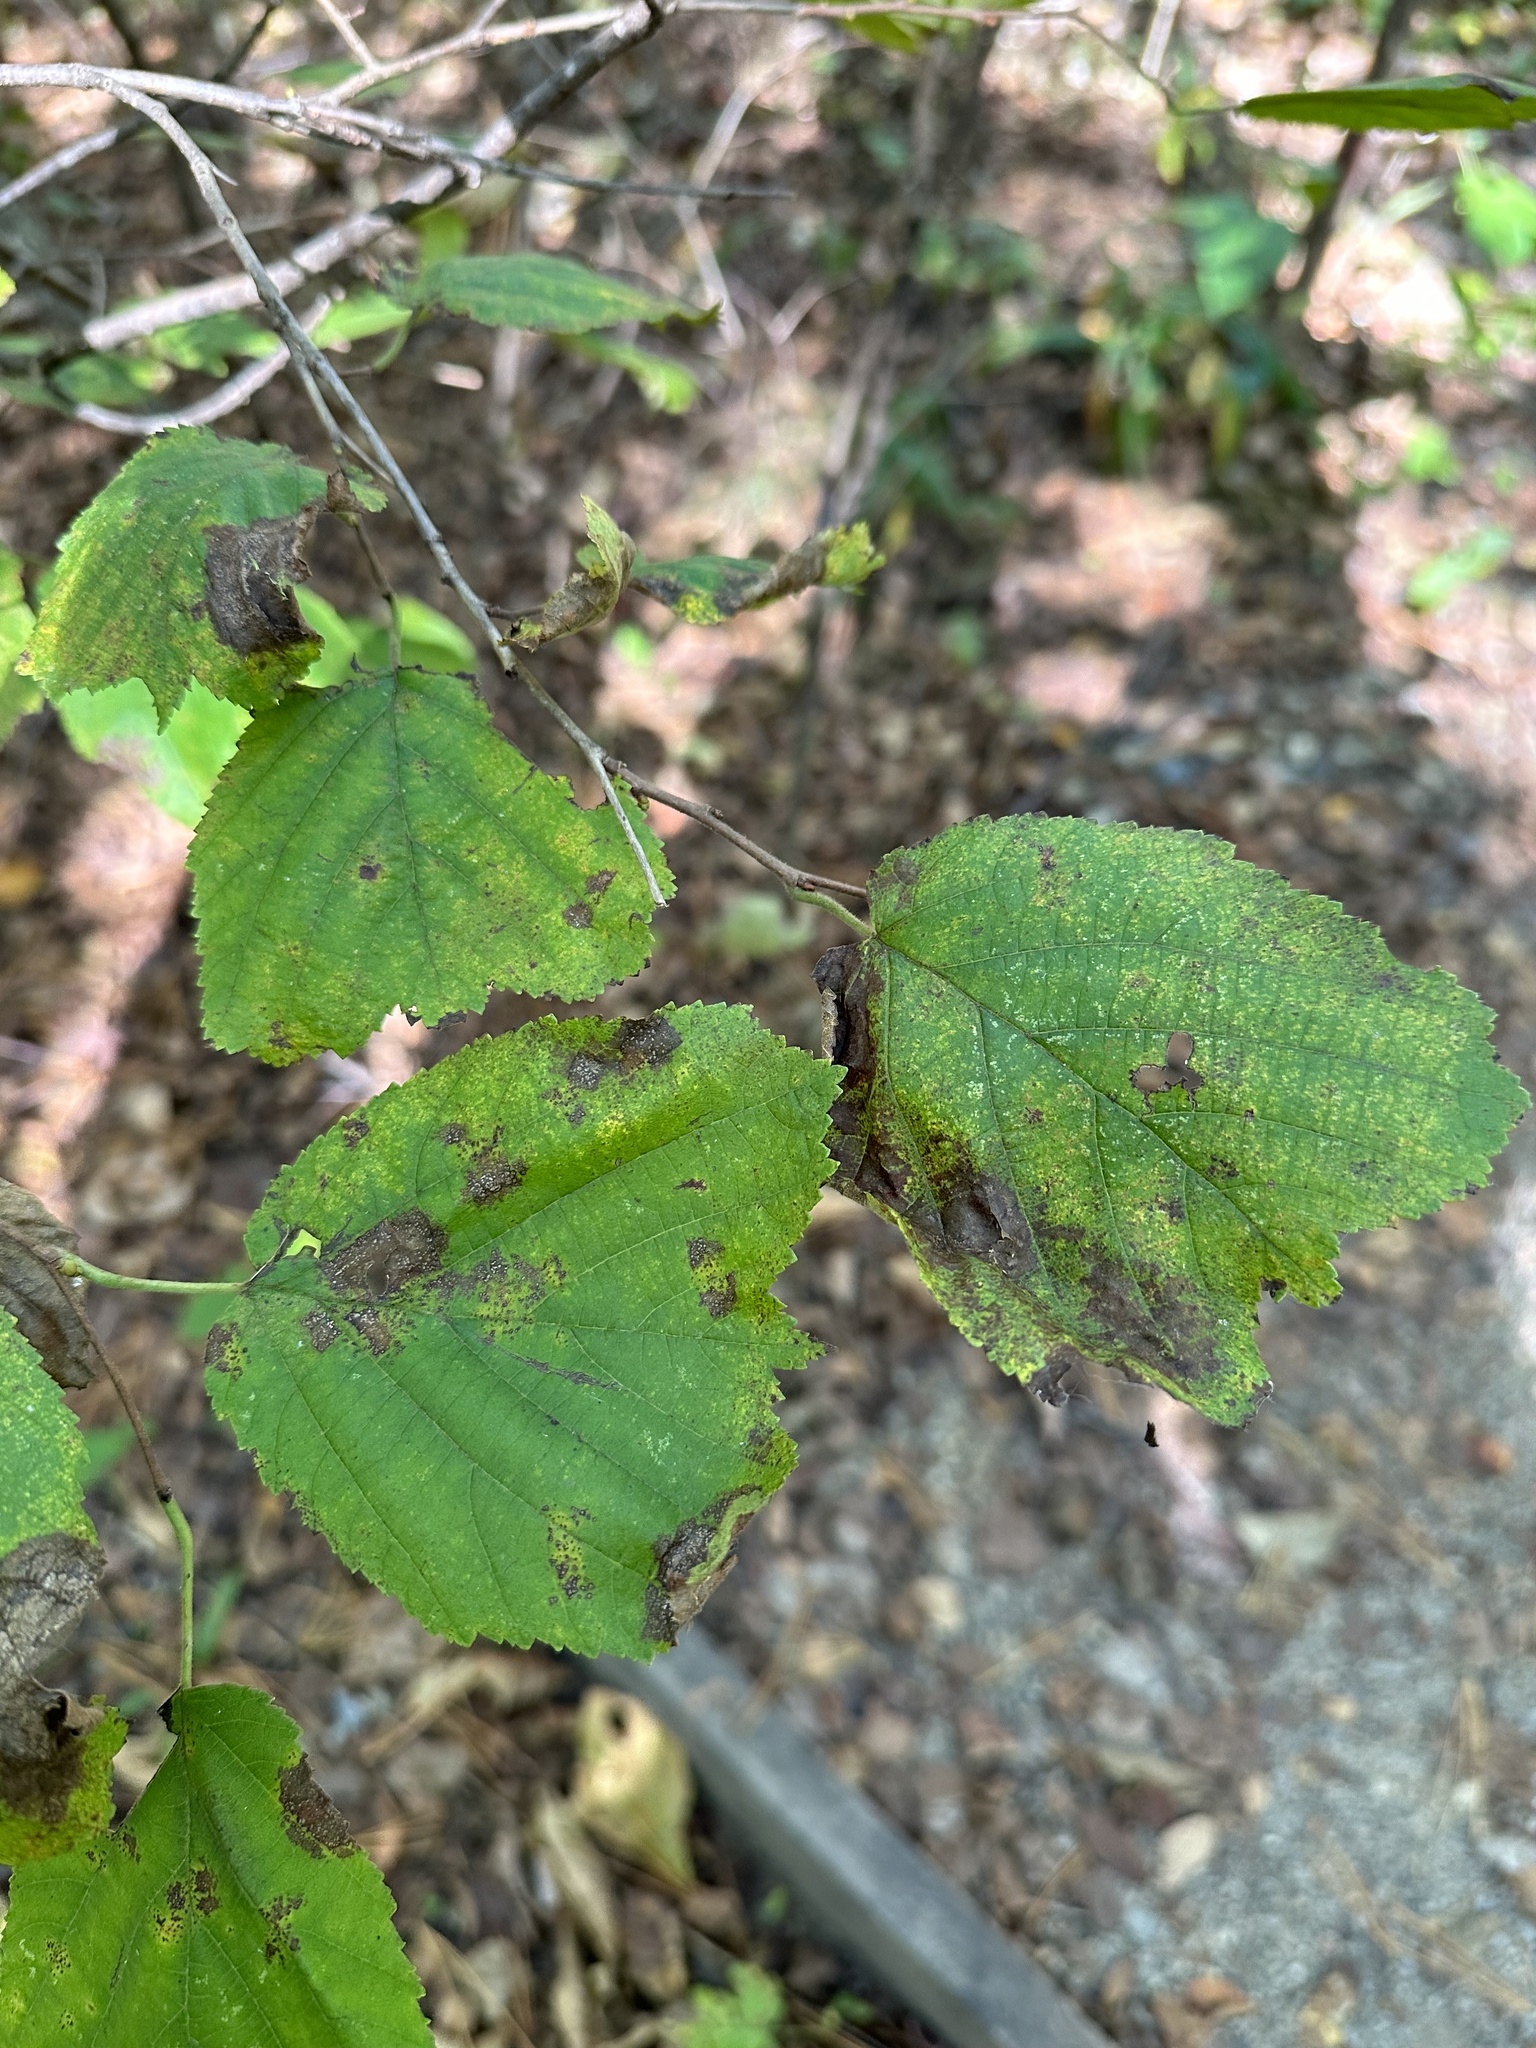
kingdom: Plantae
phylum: Tracheophyta
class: Magnoliopsida
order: Fagales
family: Betulaceae
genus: Corylus
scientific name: Corylus heterophylla
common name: Siberian hazelnut
